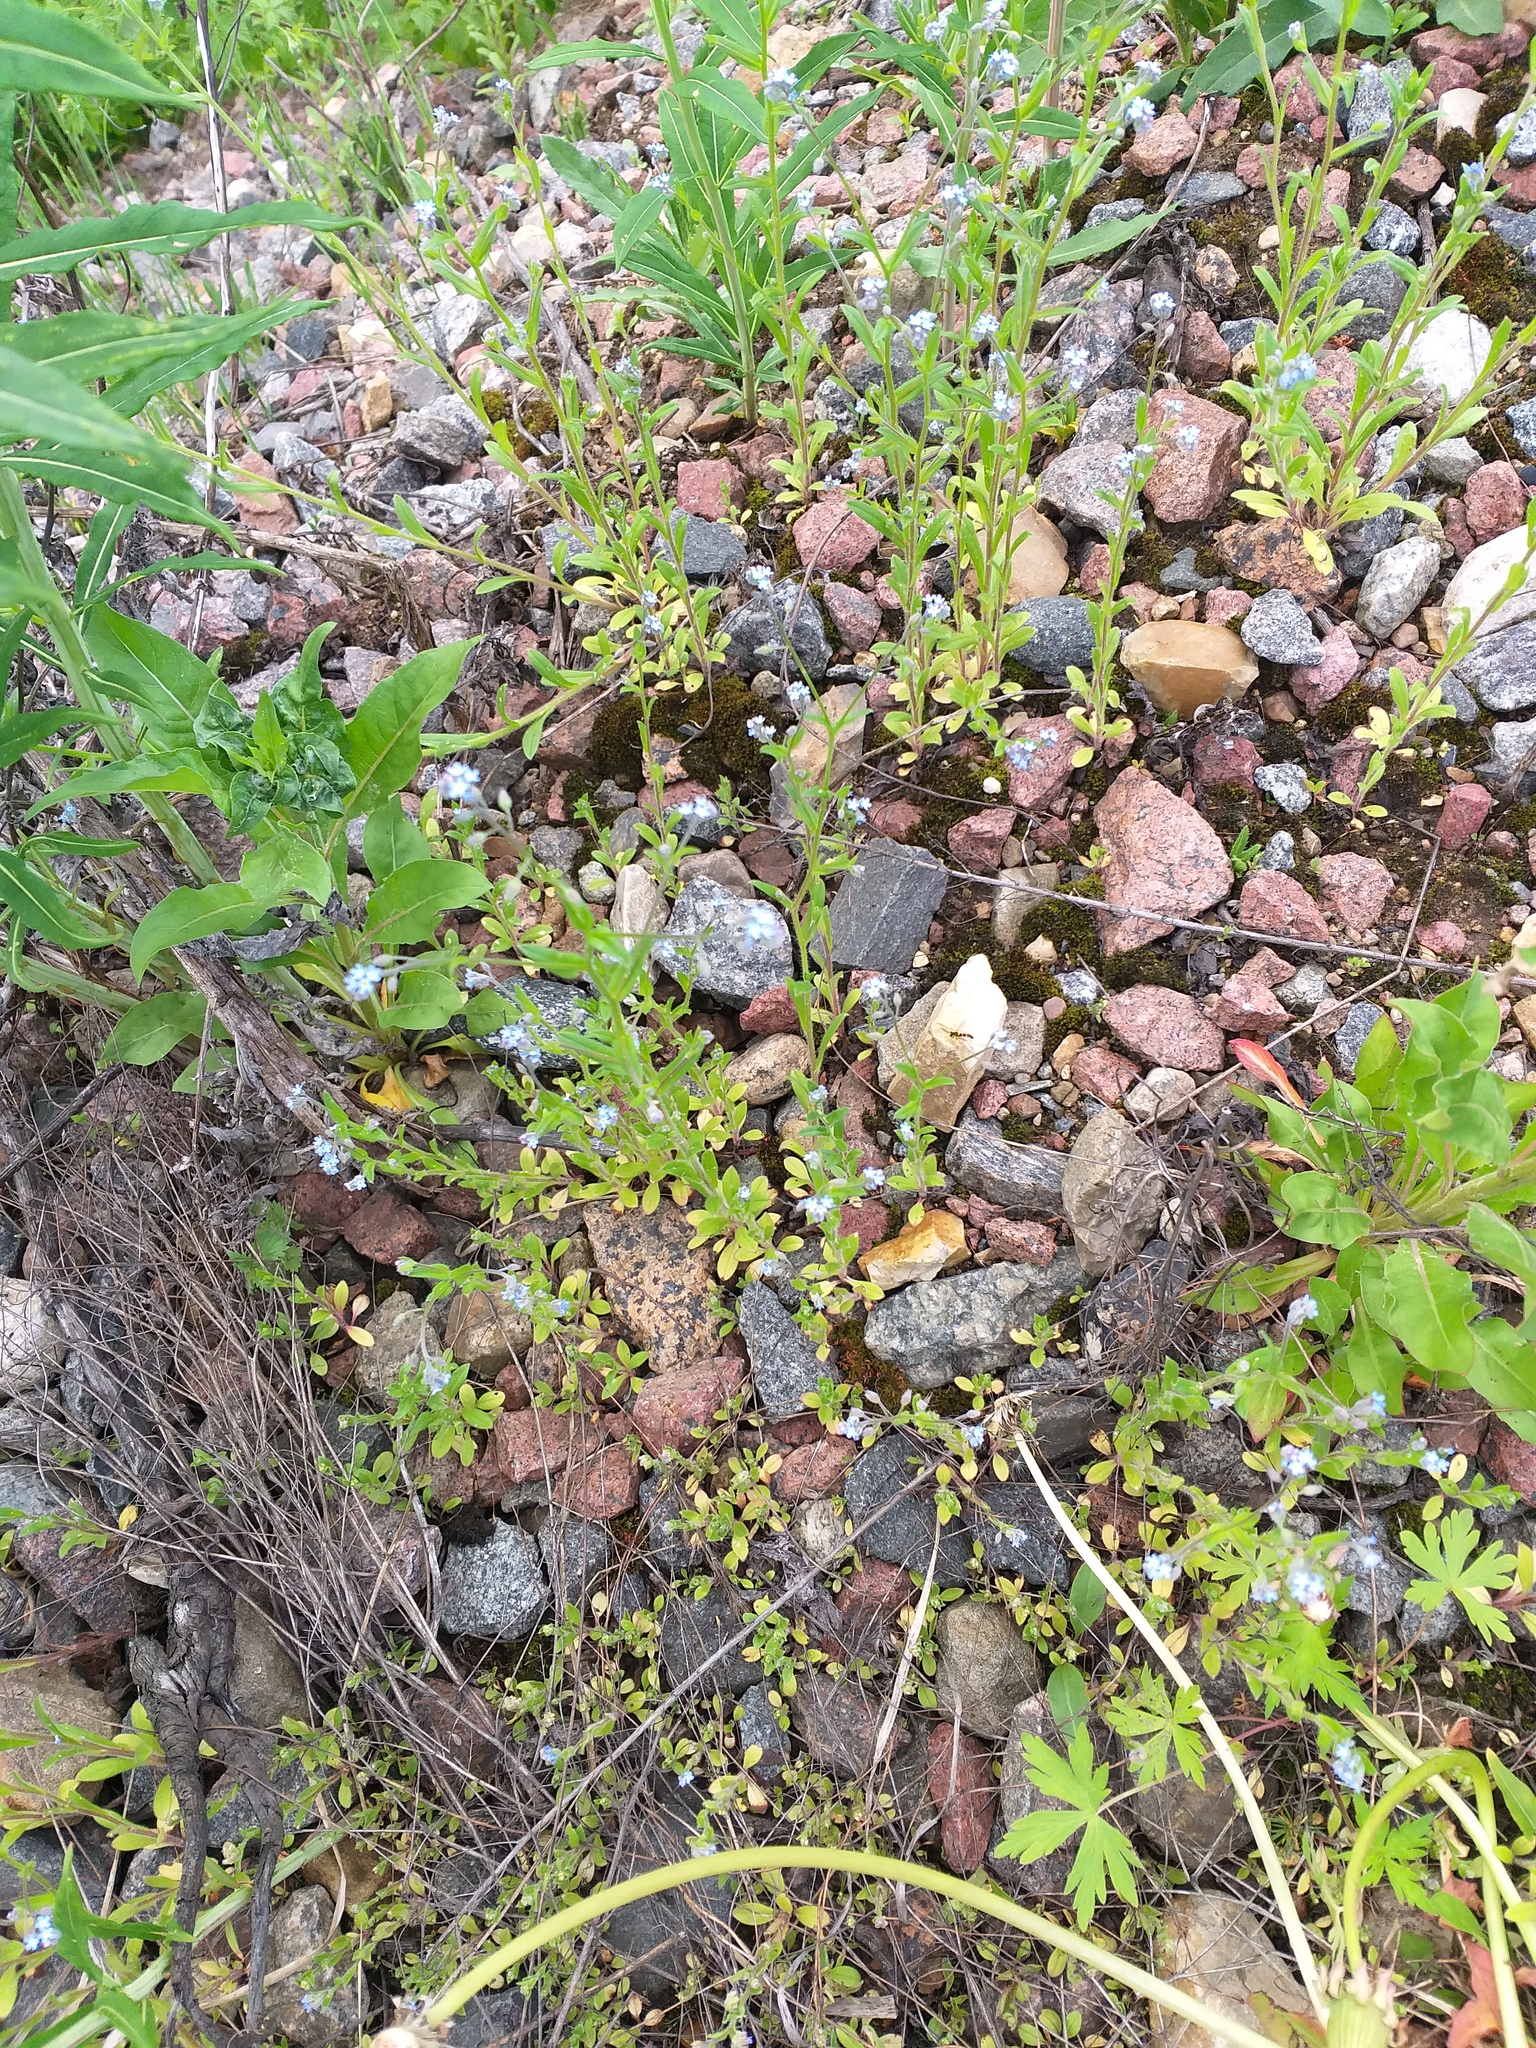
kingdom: Plantae
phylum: Tracheophyta
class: Magnoliopsida
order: Boraginales
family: Boraginaceae
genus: Myosotis
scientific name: Myosotis arvensis
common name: Field forget-me-not
